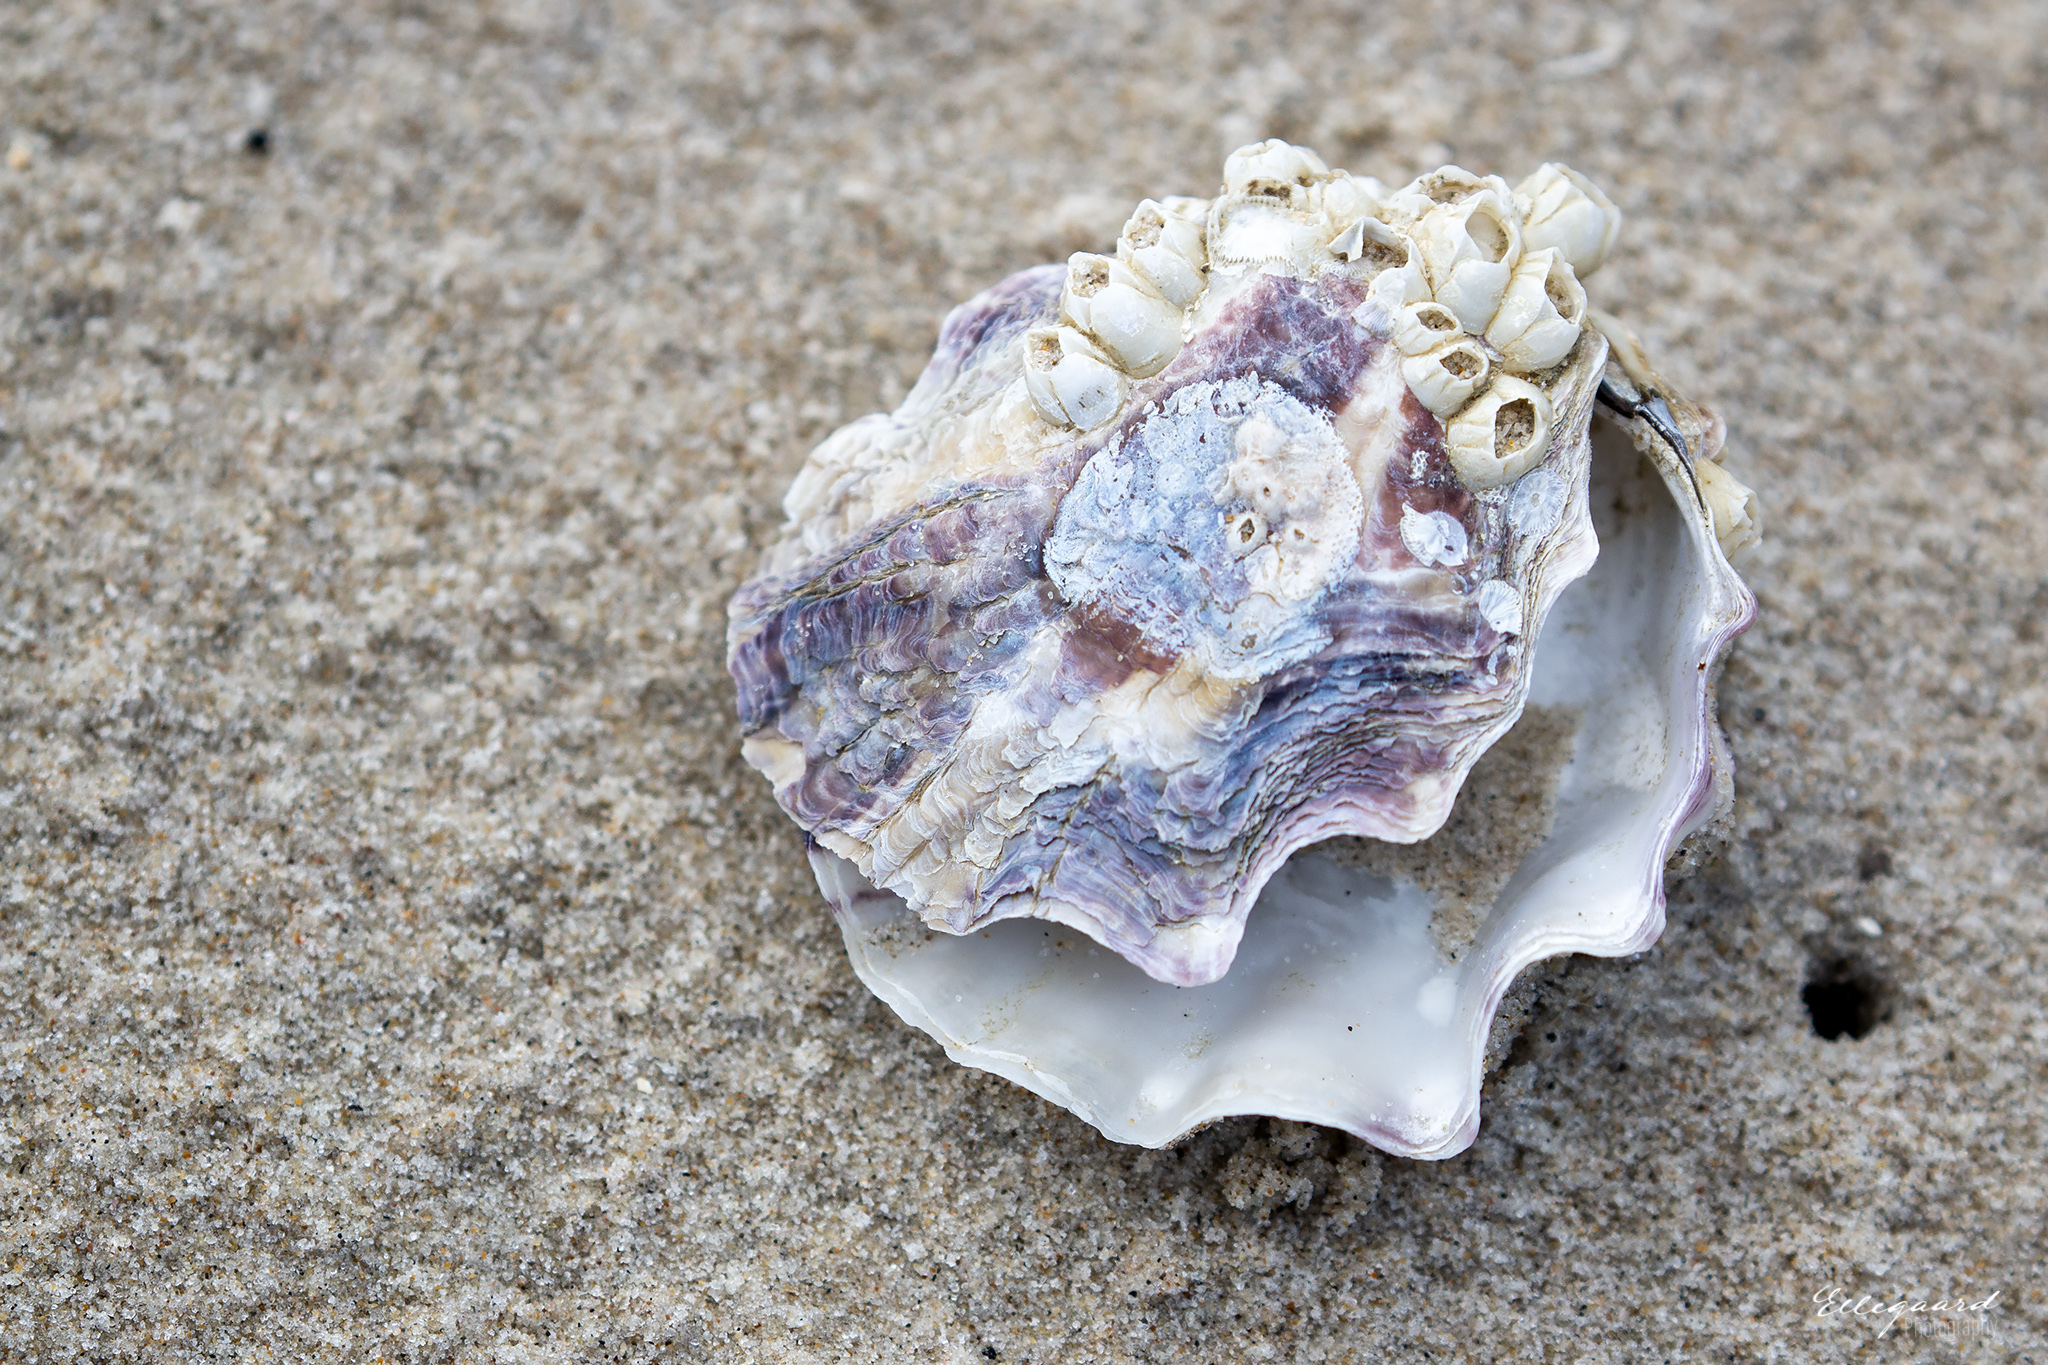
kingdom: Animalia
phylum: Mollusca
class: Bivalvia
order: Ostreida
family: Ostreidae
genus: Magallana
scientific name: Magallana gigas
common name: Pacific oyster
